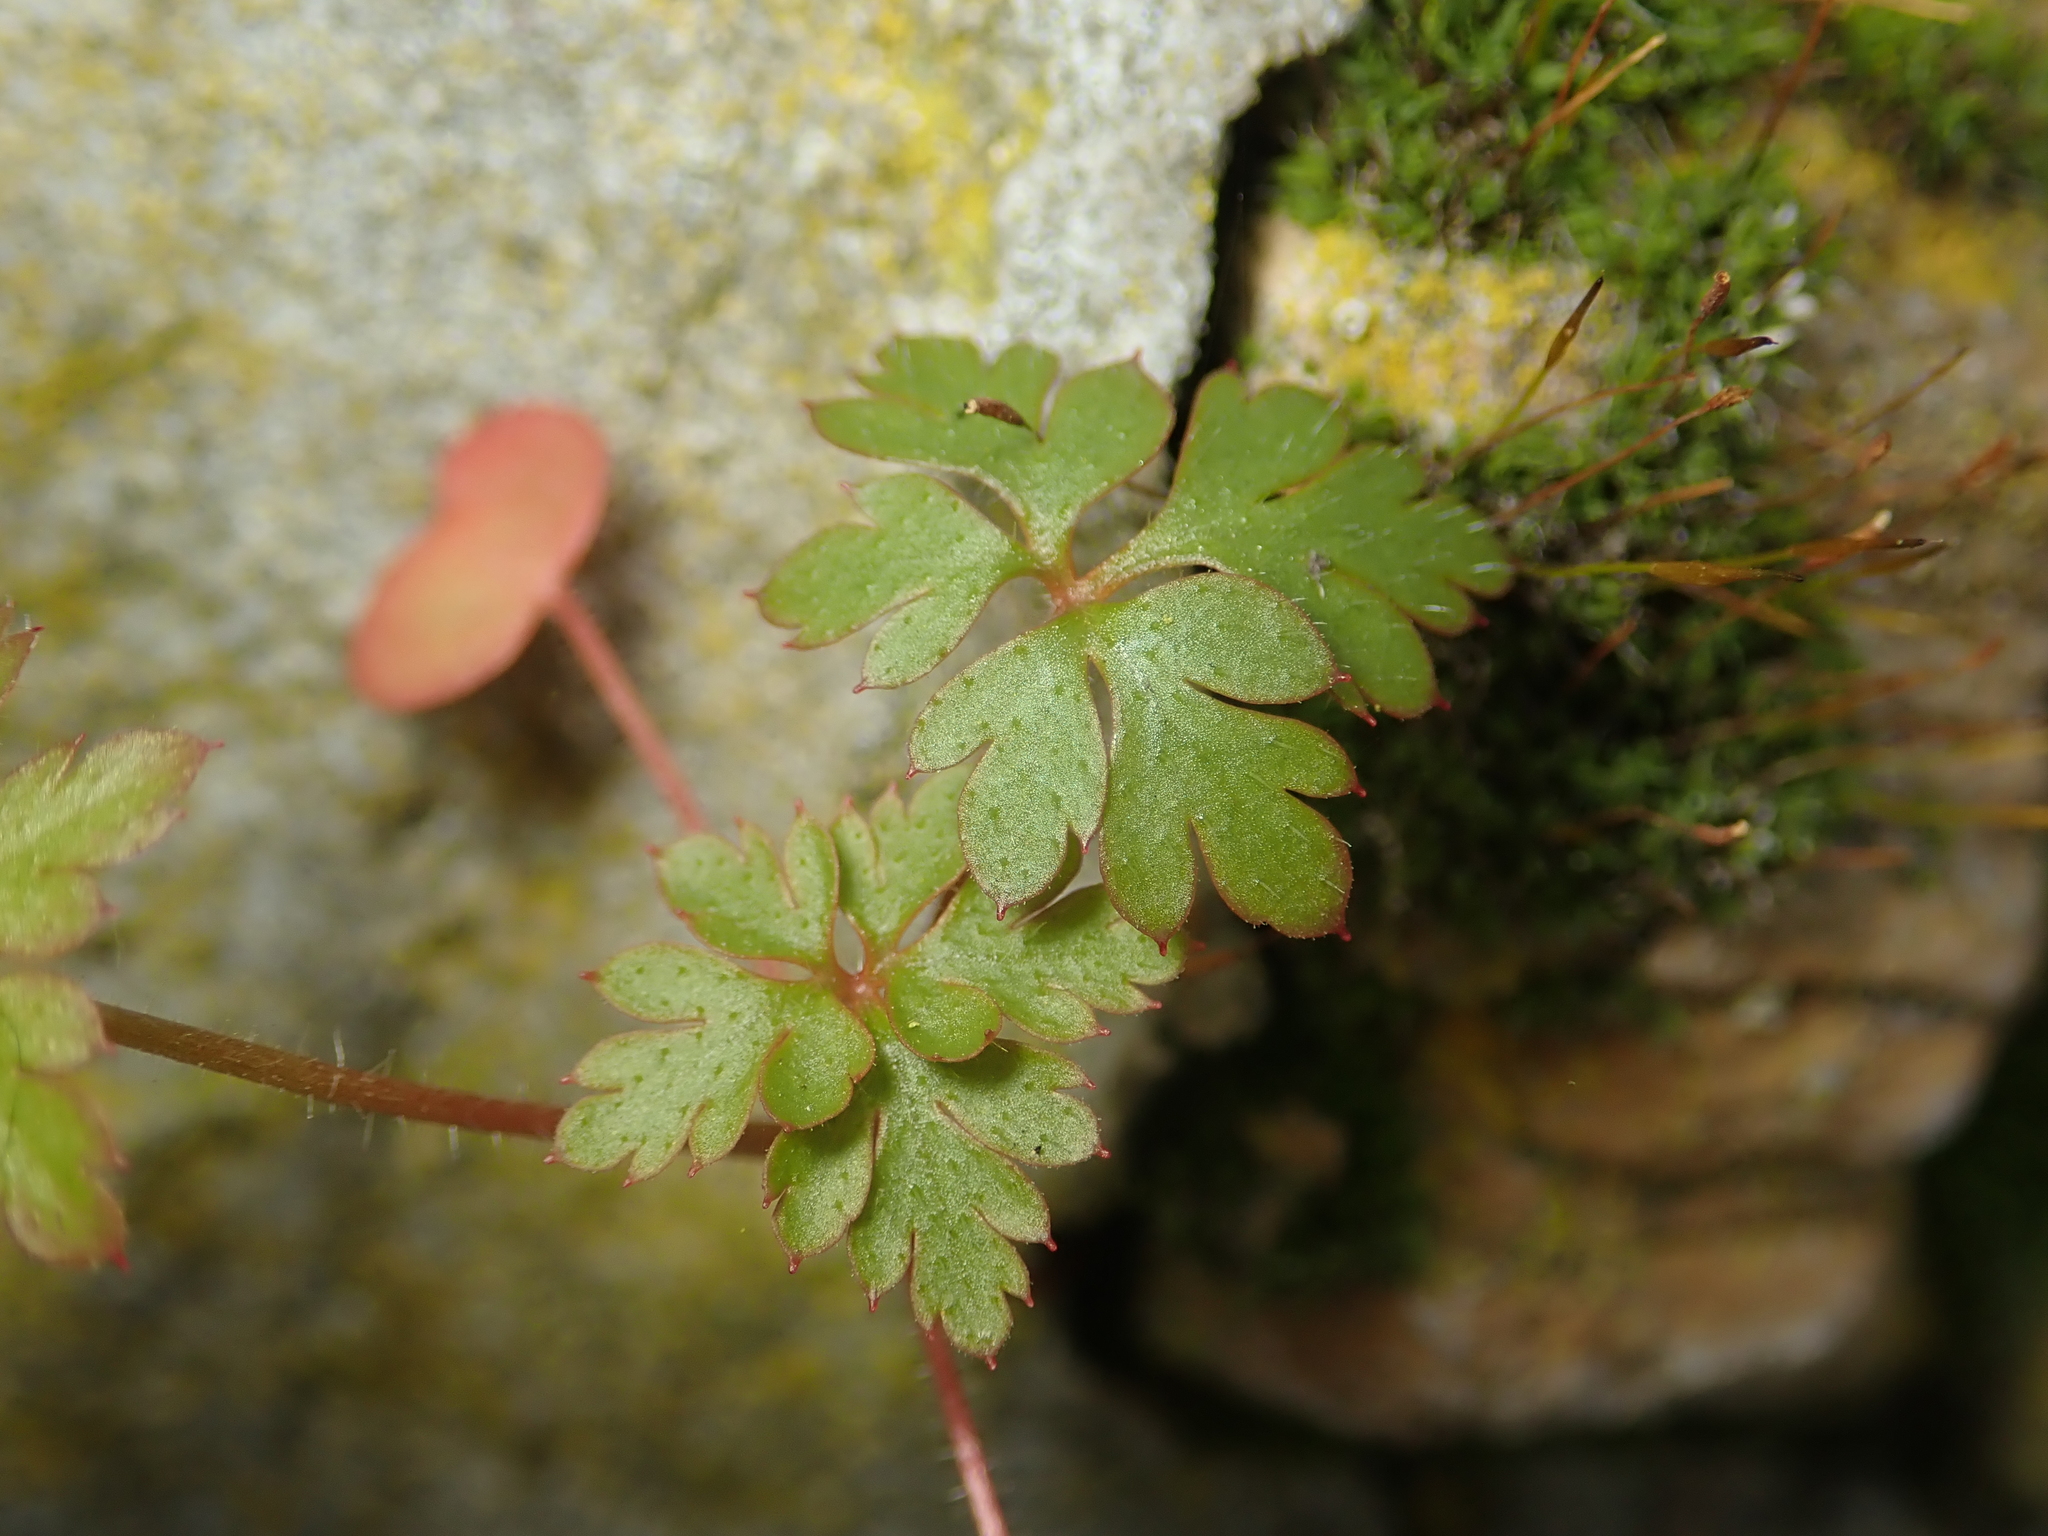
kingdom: Plantae
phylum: Tracheophyta
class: Magnoliopsida
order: Geraniales
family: Geraniaceae
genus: Geranium
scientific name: Geranium robertianum
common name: Herb-robert
